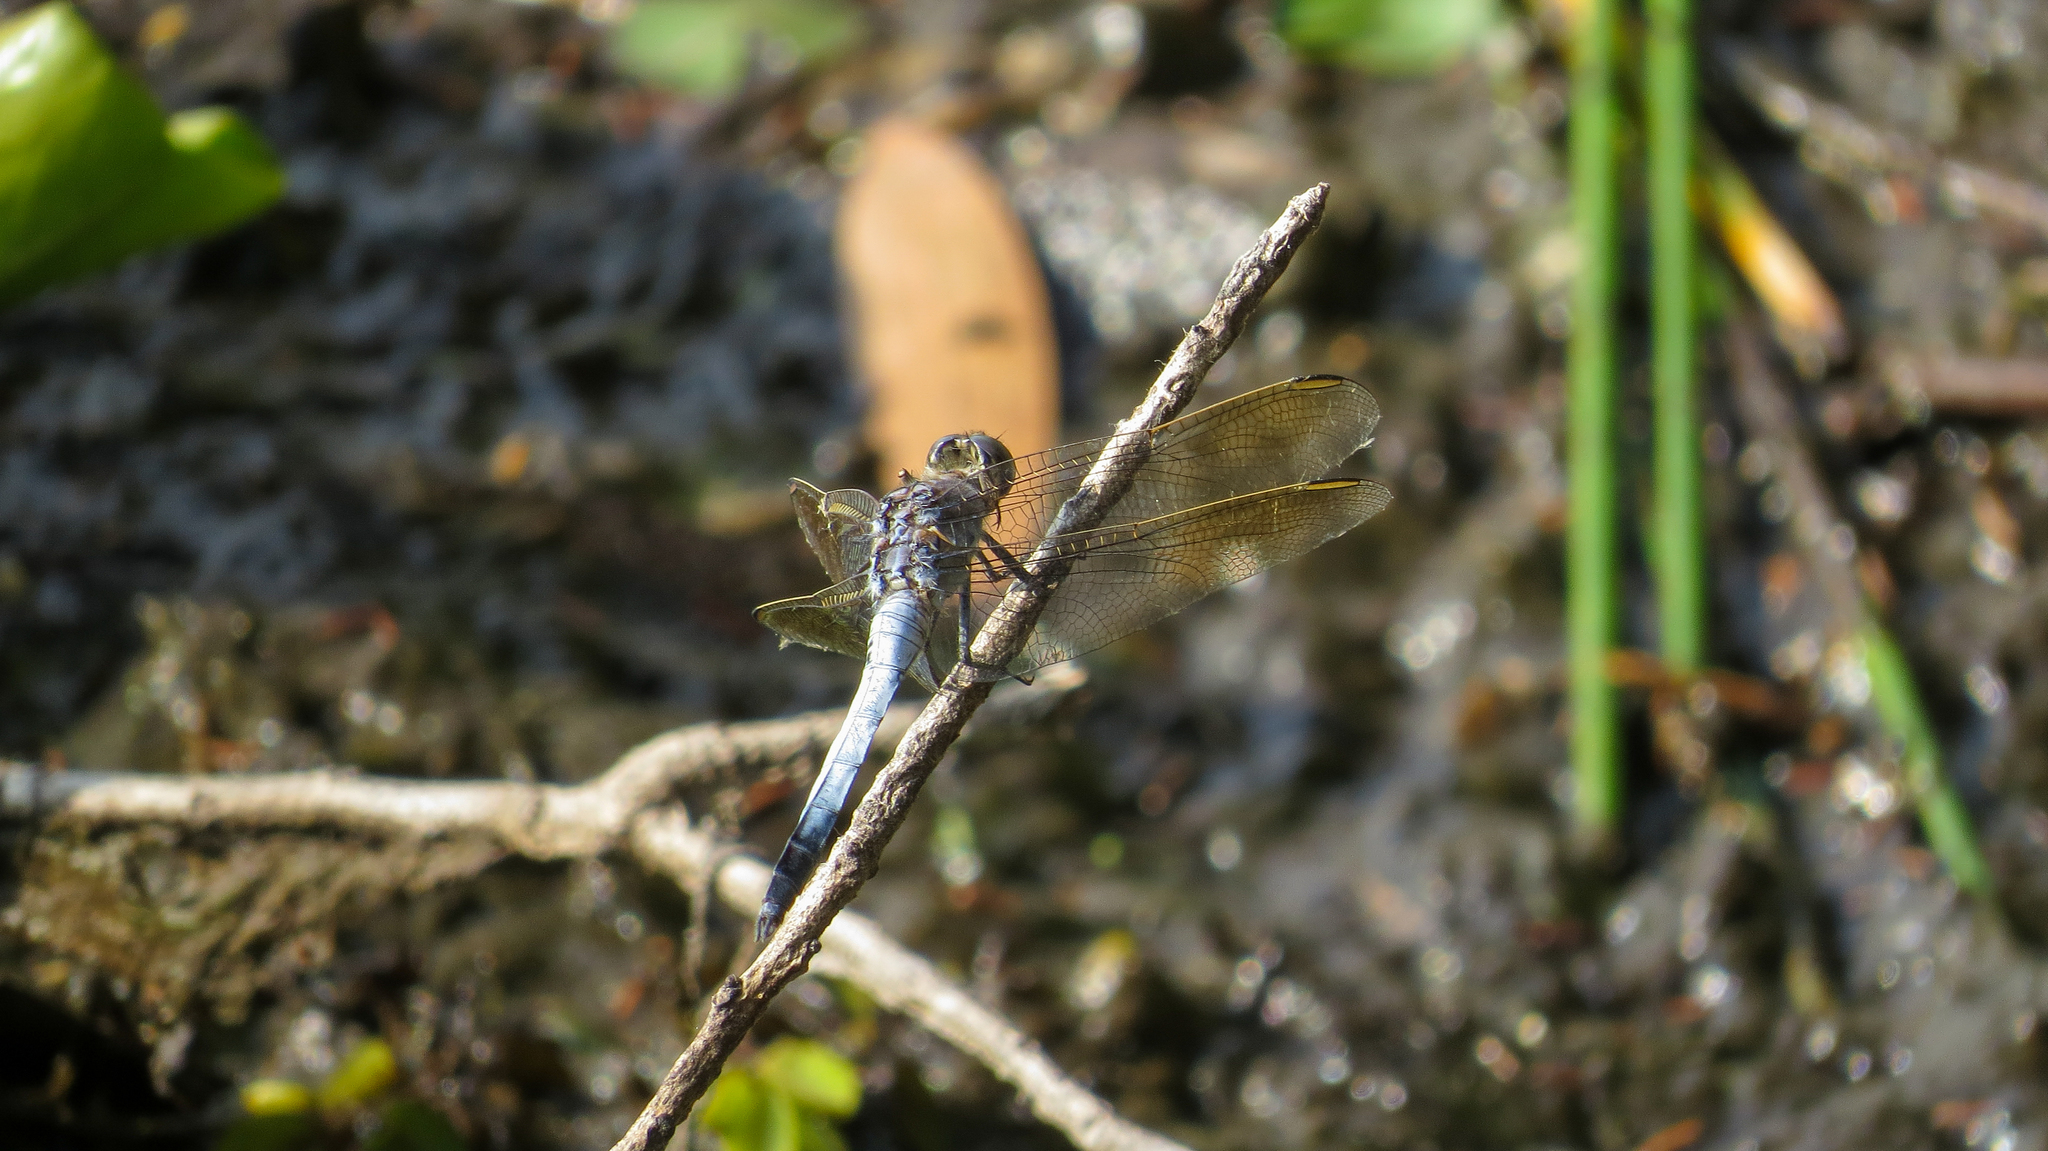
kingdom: Animalia
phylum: Arthropoda
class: Insecta
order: Odonata
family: Libellulidae
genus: Orthetrum
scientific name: Orthetrum caledonicum
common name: Blue skimmer
